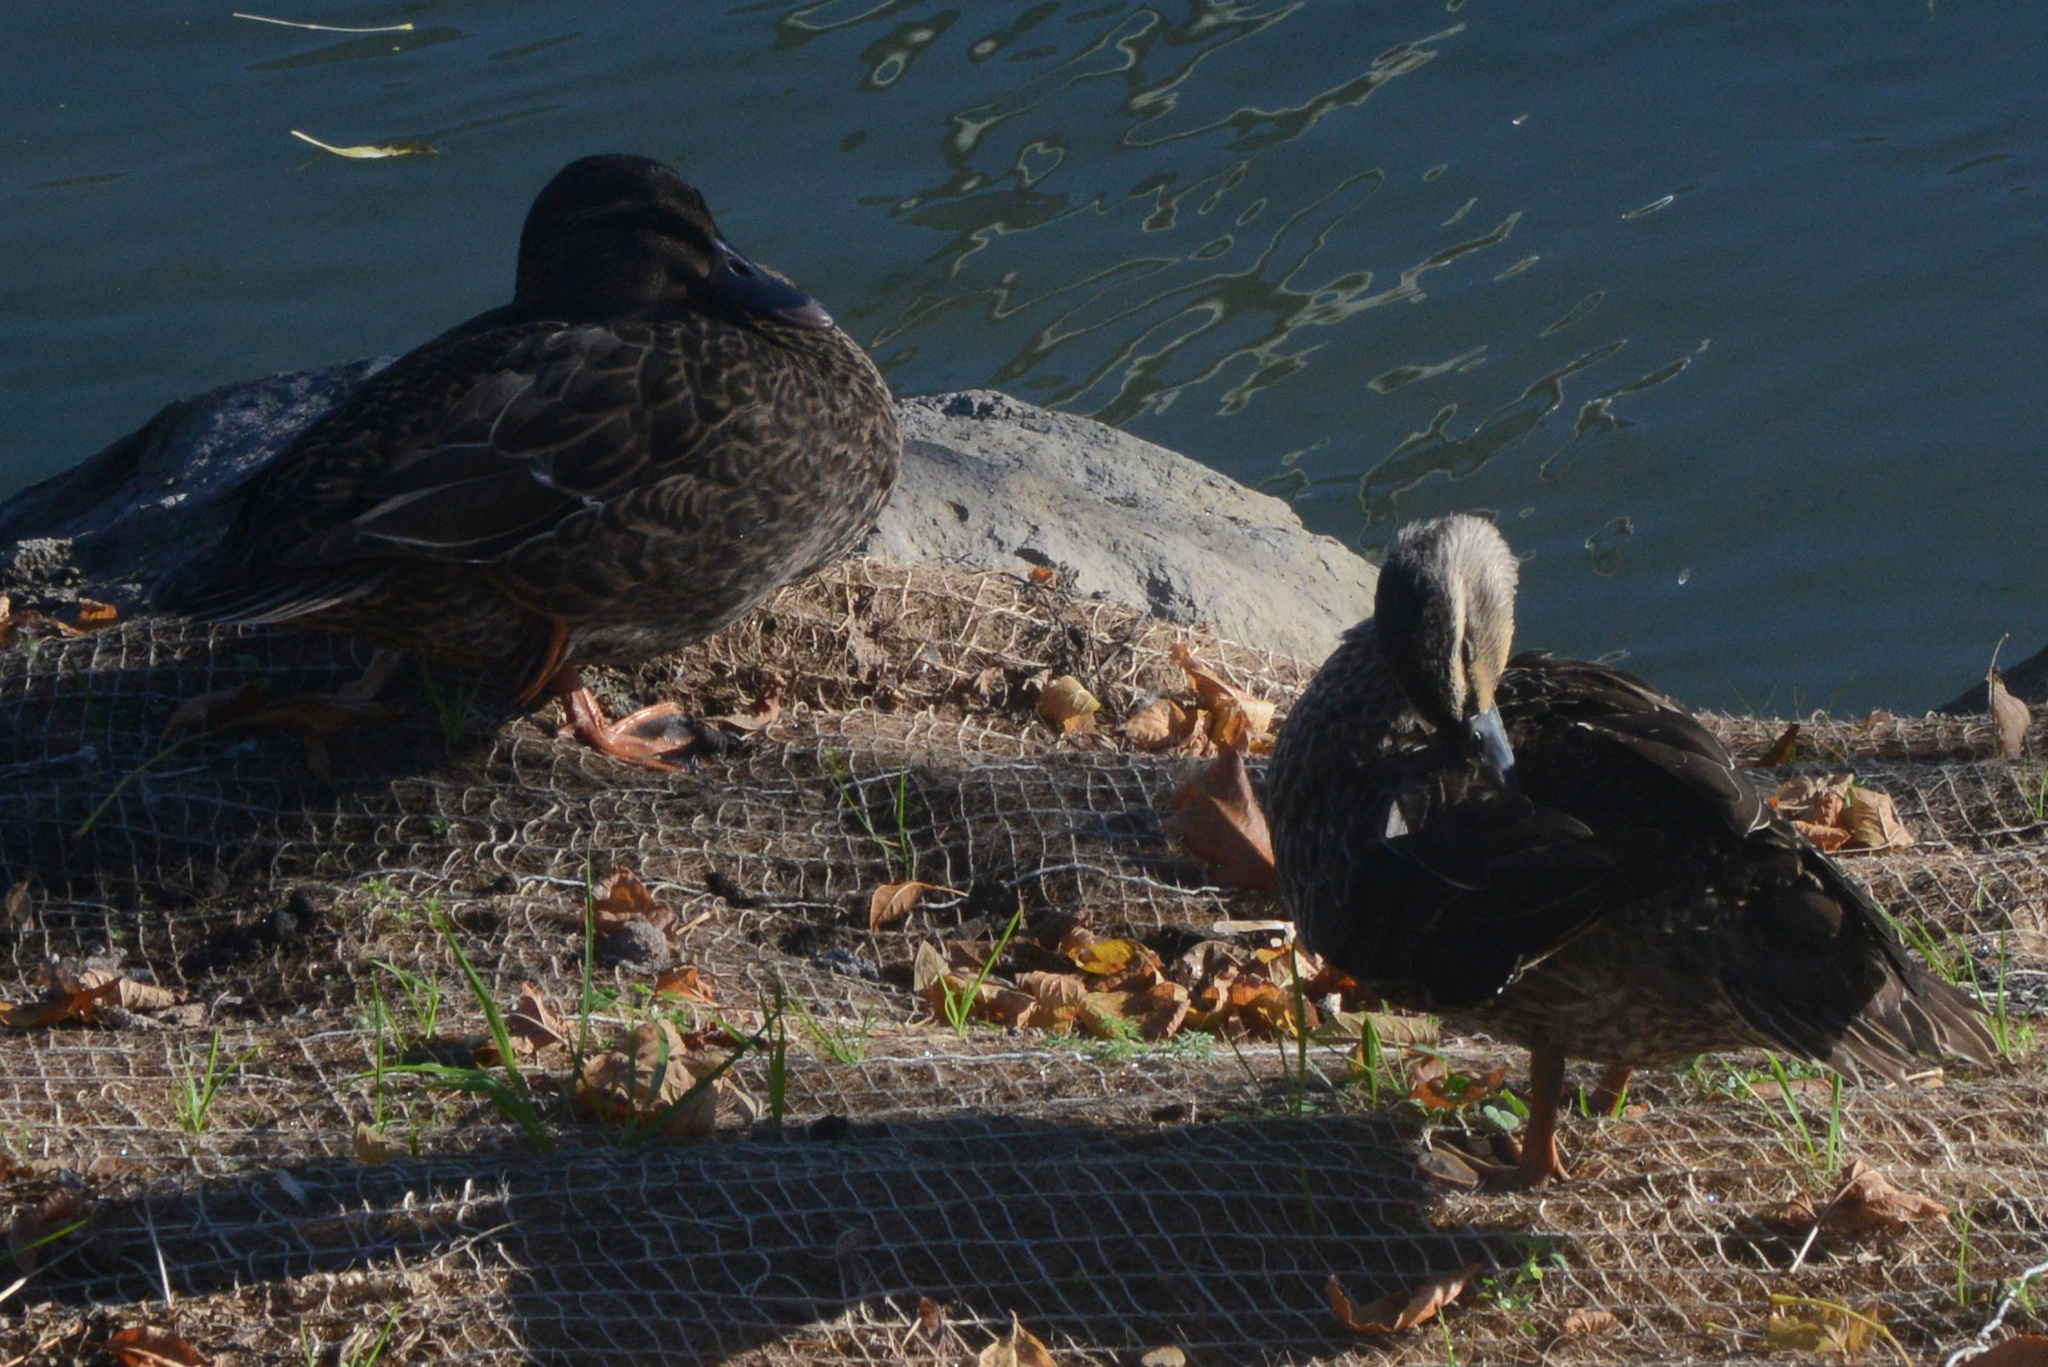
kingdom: Animalia
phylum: Chordata
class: Aves
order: Anseriformes
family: Anatidae
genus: Anas
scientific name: Anas
